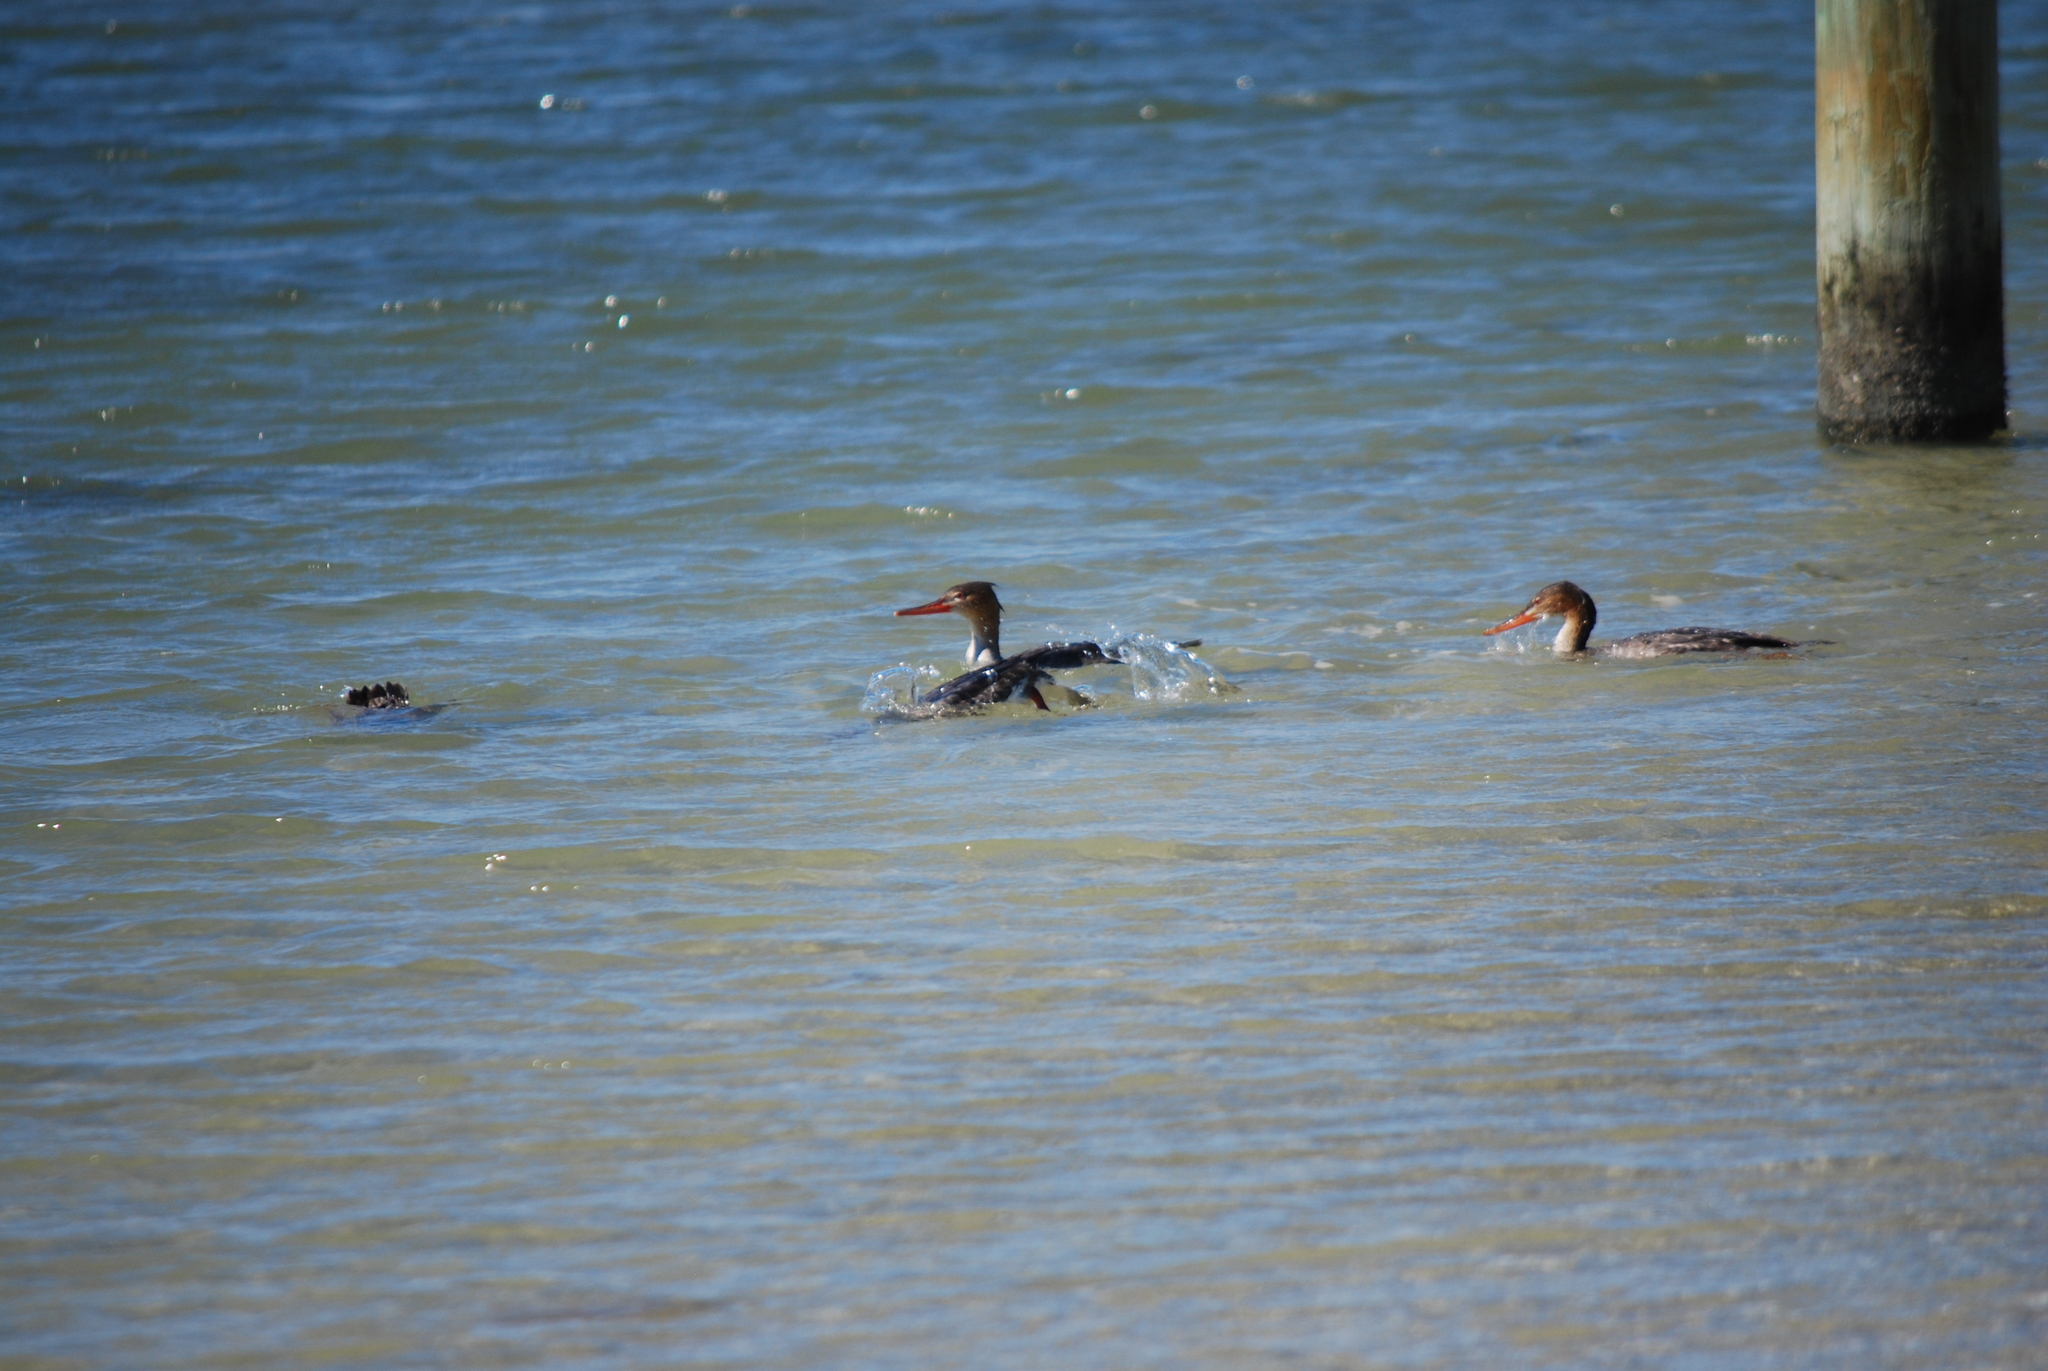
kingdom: Animalia
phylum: Chordata
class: Aves
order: Anseriformes
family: Anatidae
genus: Mergus
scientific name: Mergus serrator
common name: Red-breasted merganser
